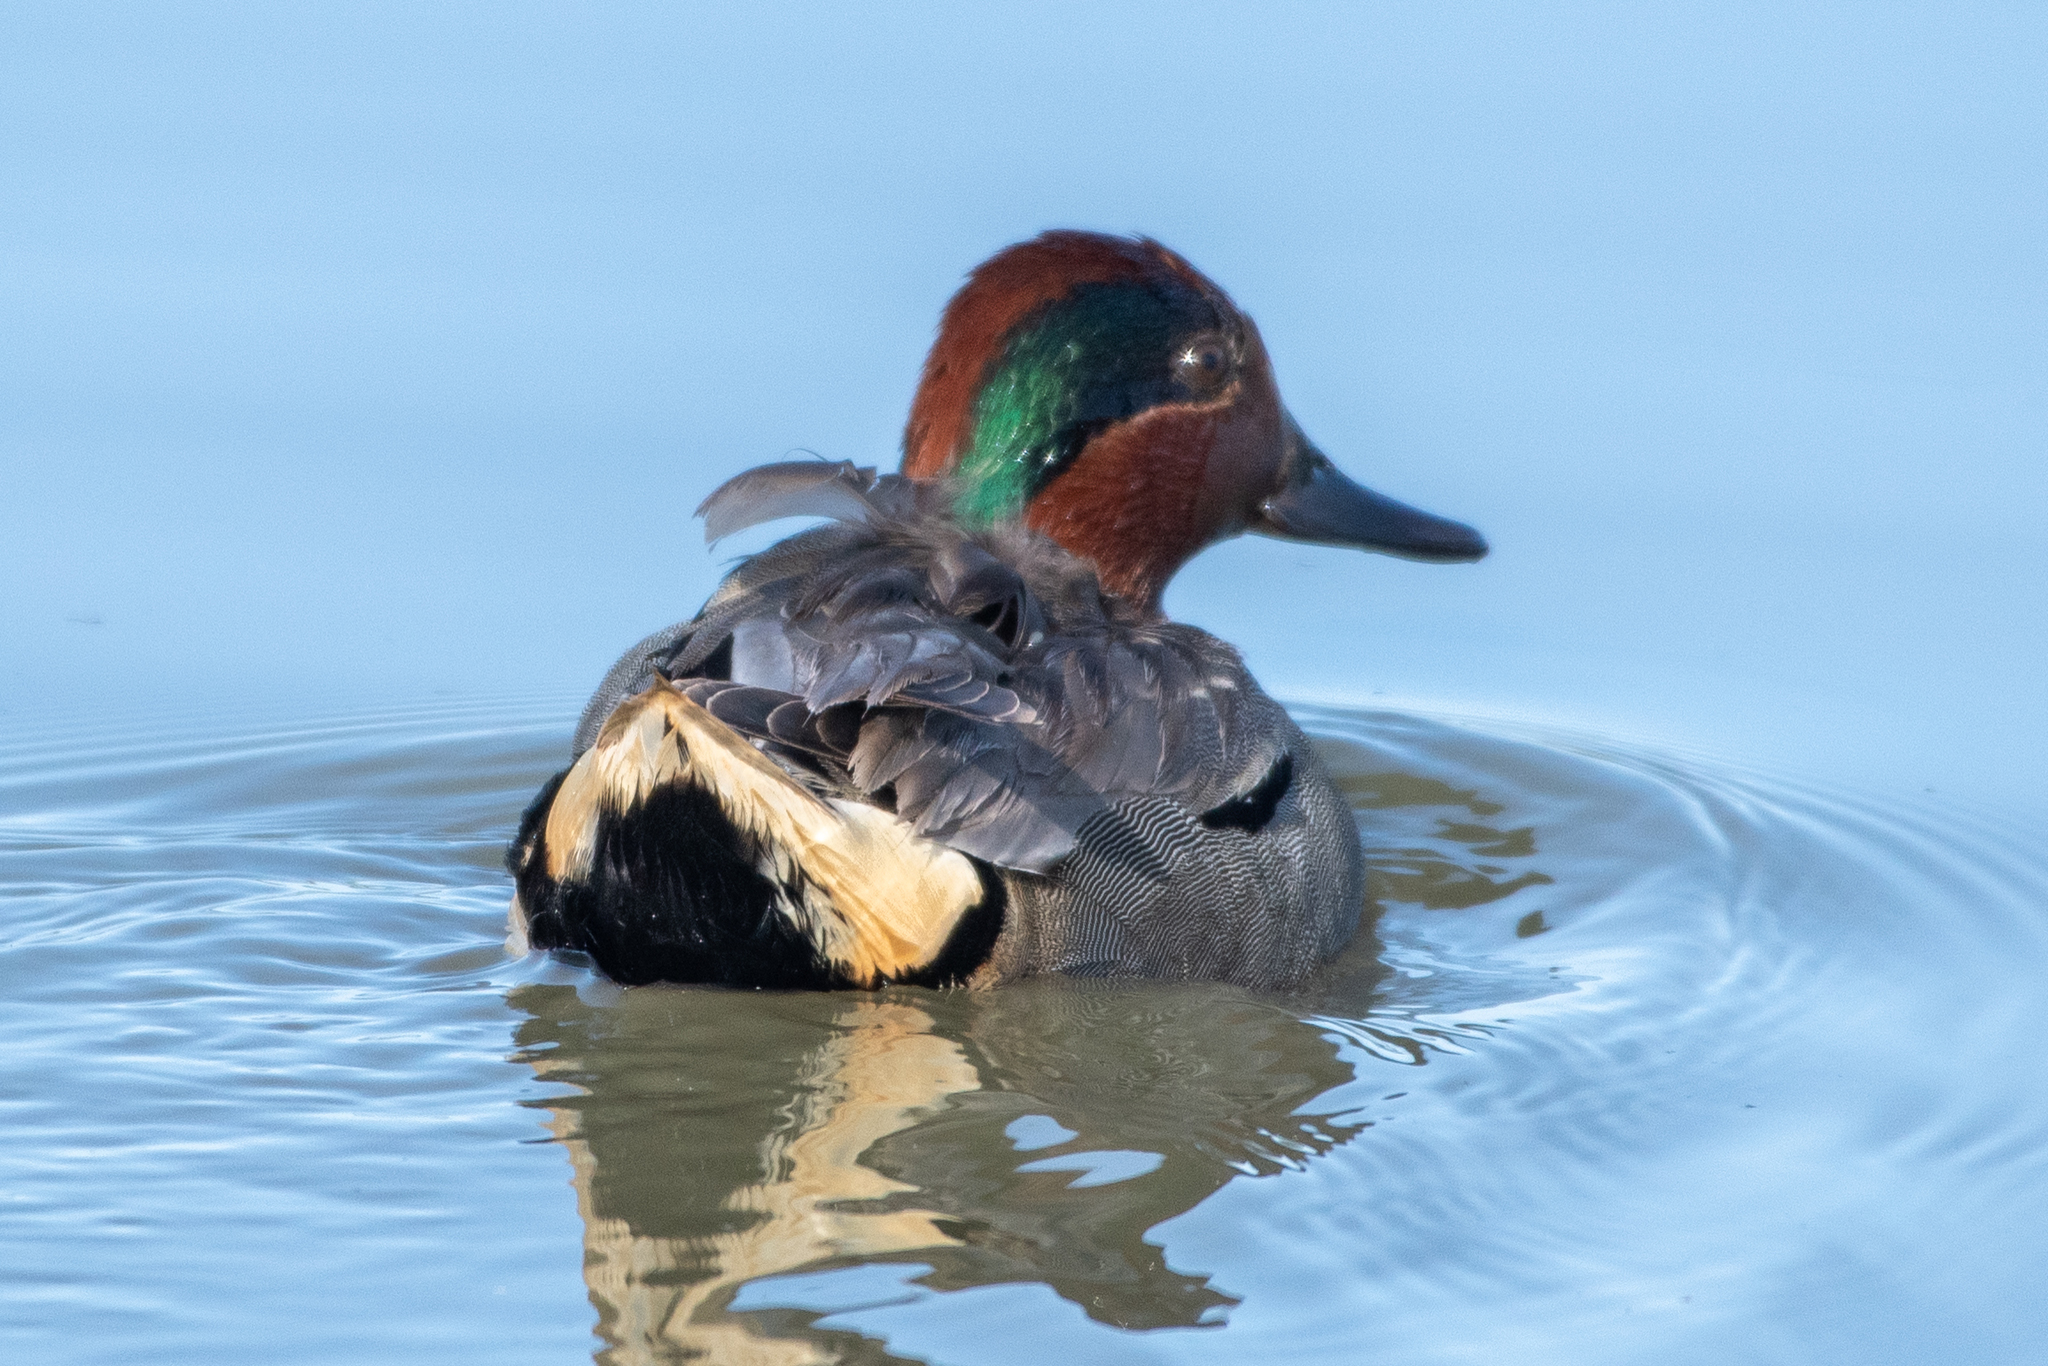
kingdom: Animalia
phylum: Chordata
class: Aves
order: Anseriformes
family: Anatidae
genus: Anas
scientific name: Anas crecca
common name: Eurasian teal
